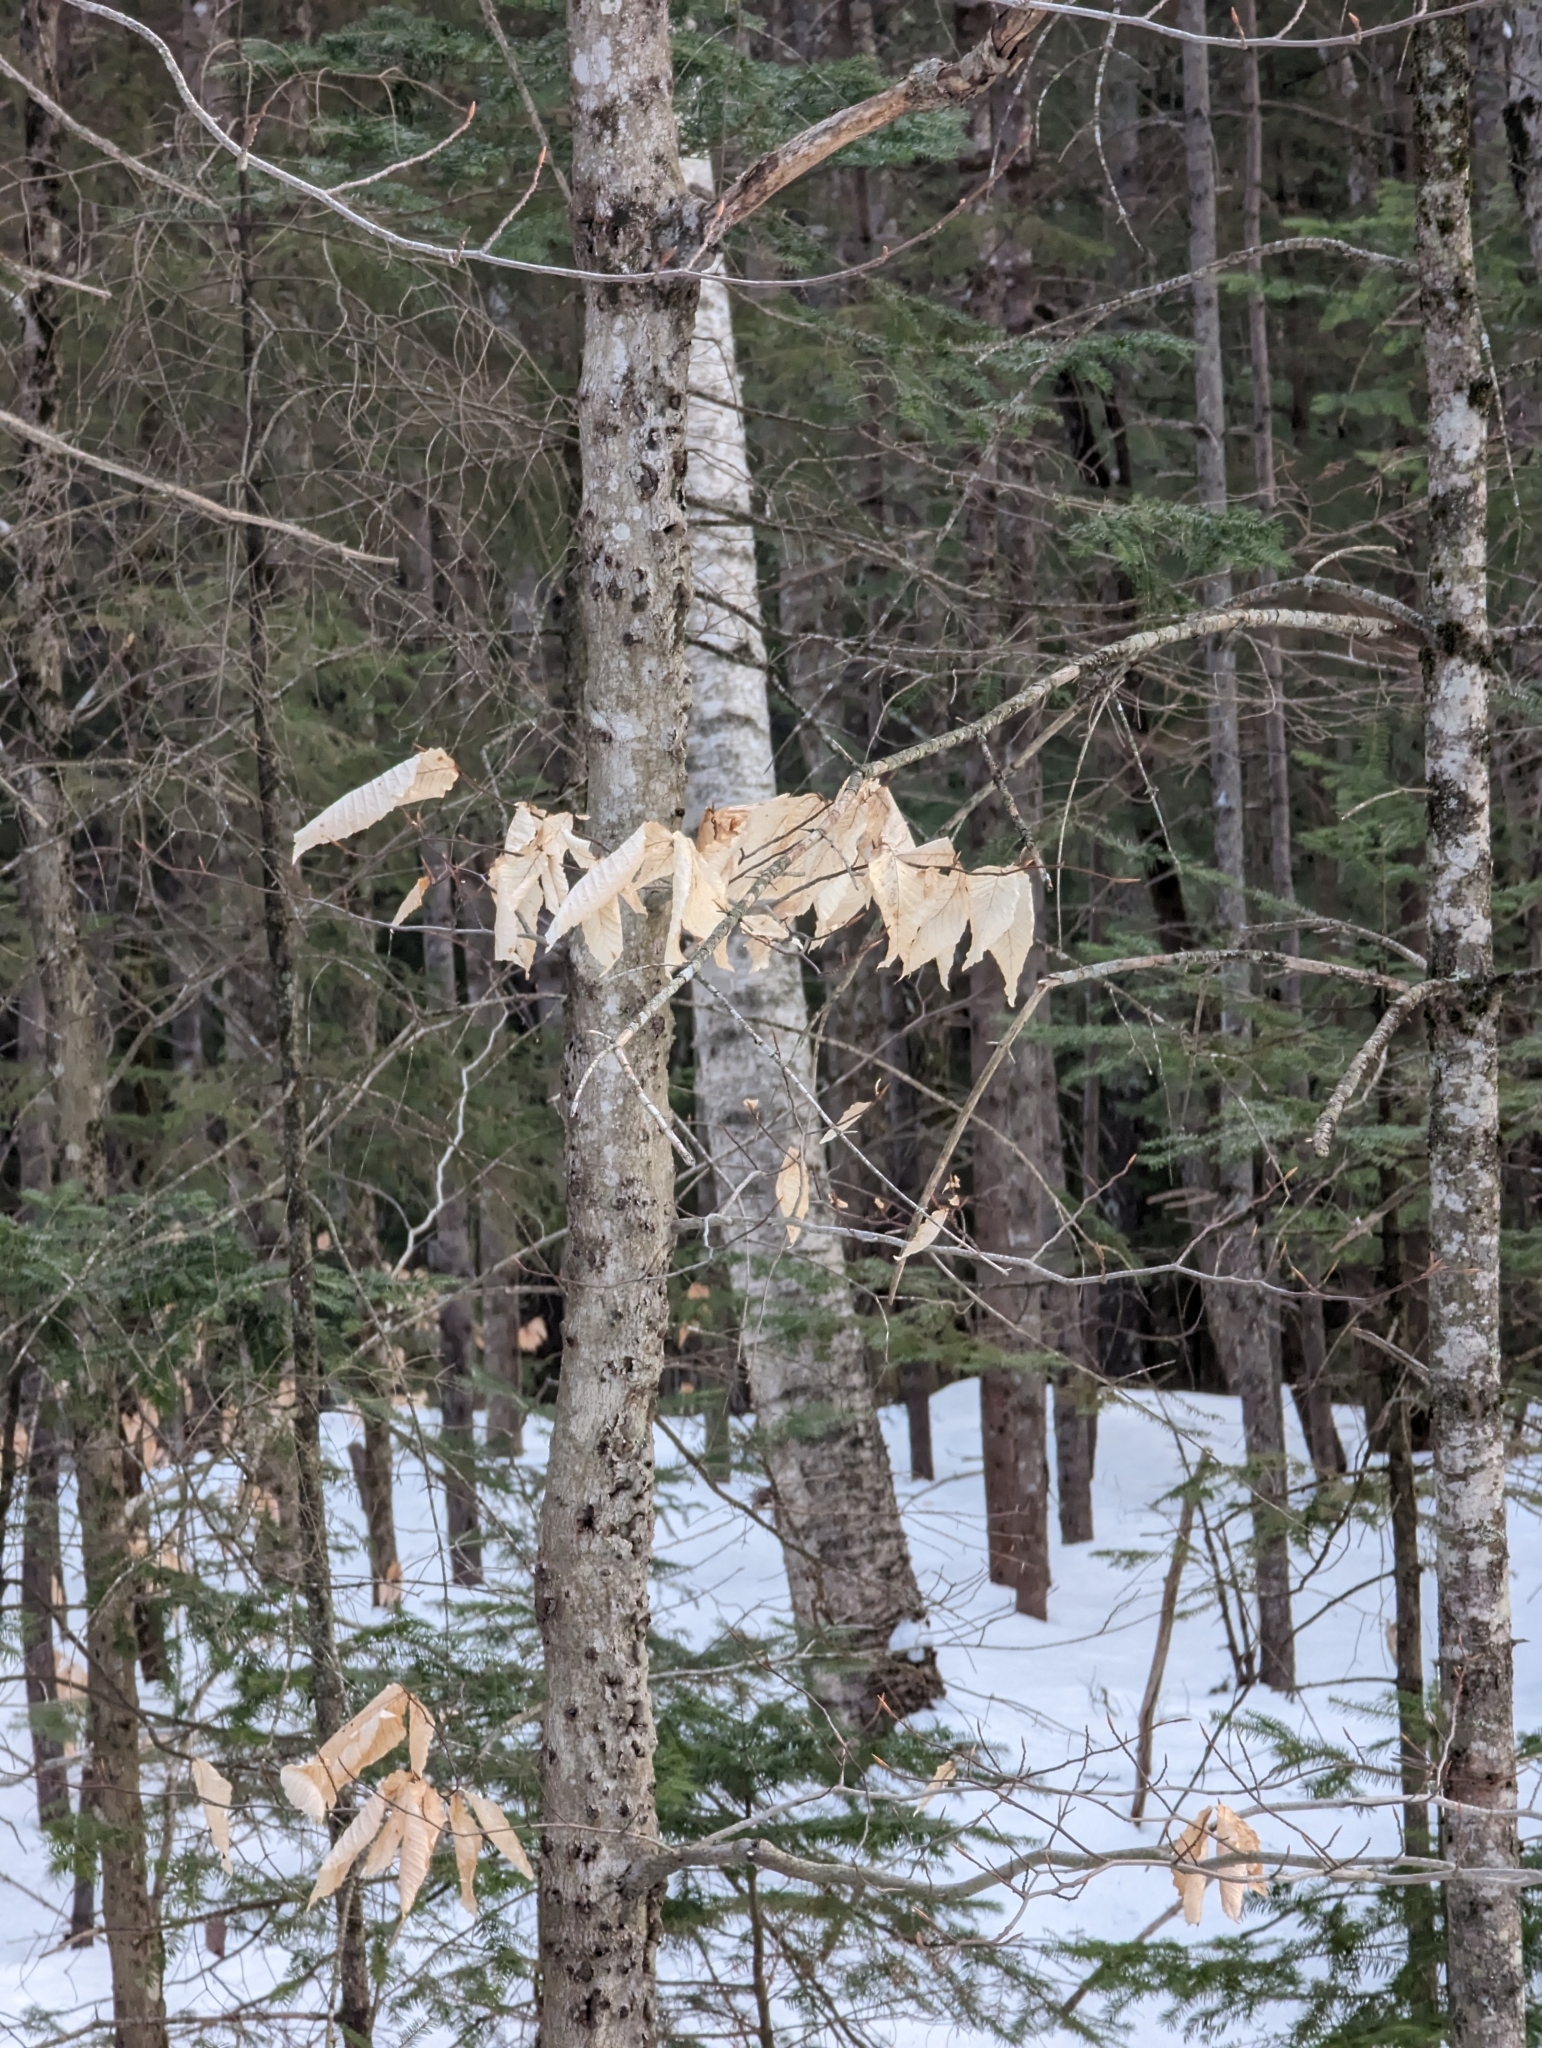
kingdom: Plantae
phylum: Tracheophyta
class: Magnoliopsida
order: Fagales
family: Fagaceae
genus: Fagus
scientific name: Fagus grandifolia
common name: American beech
